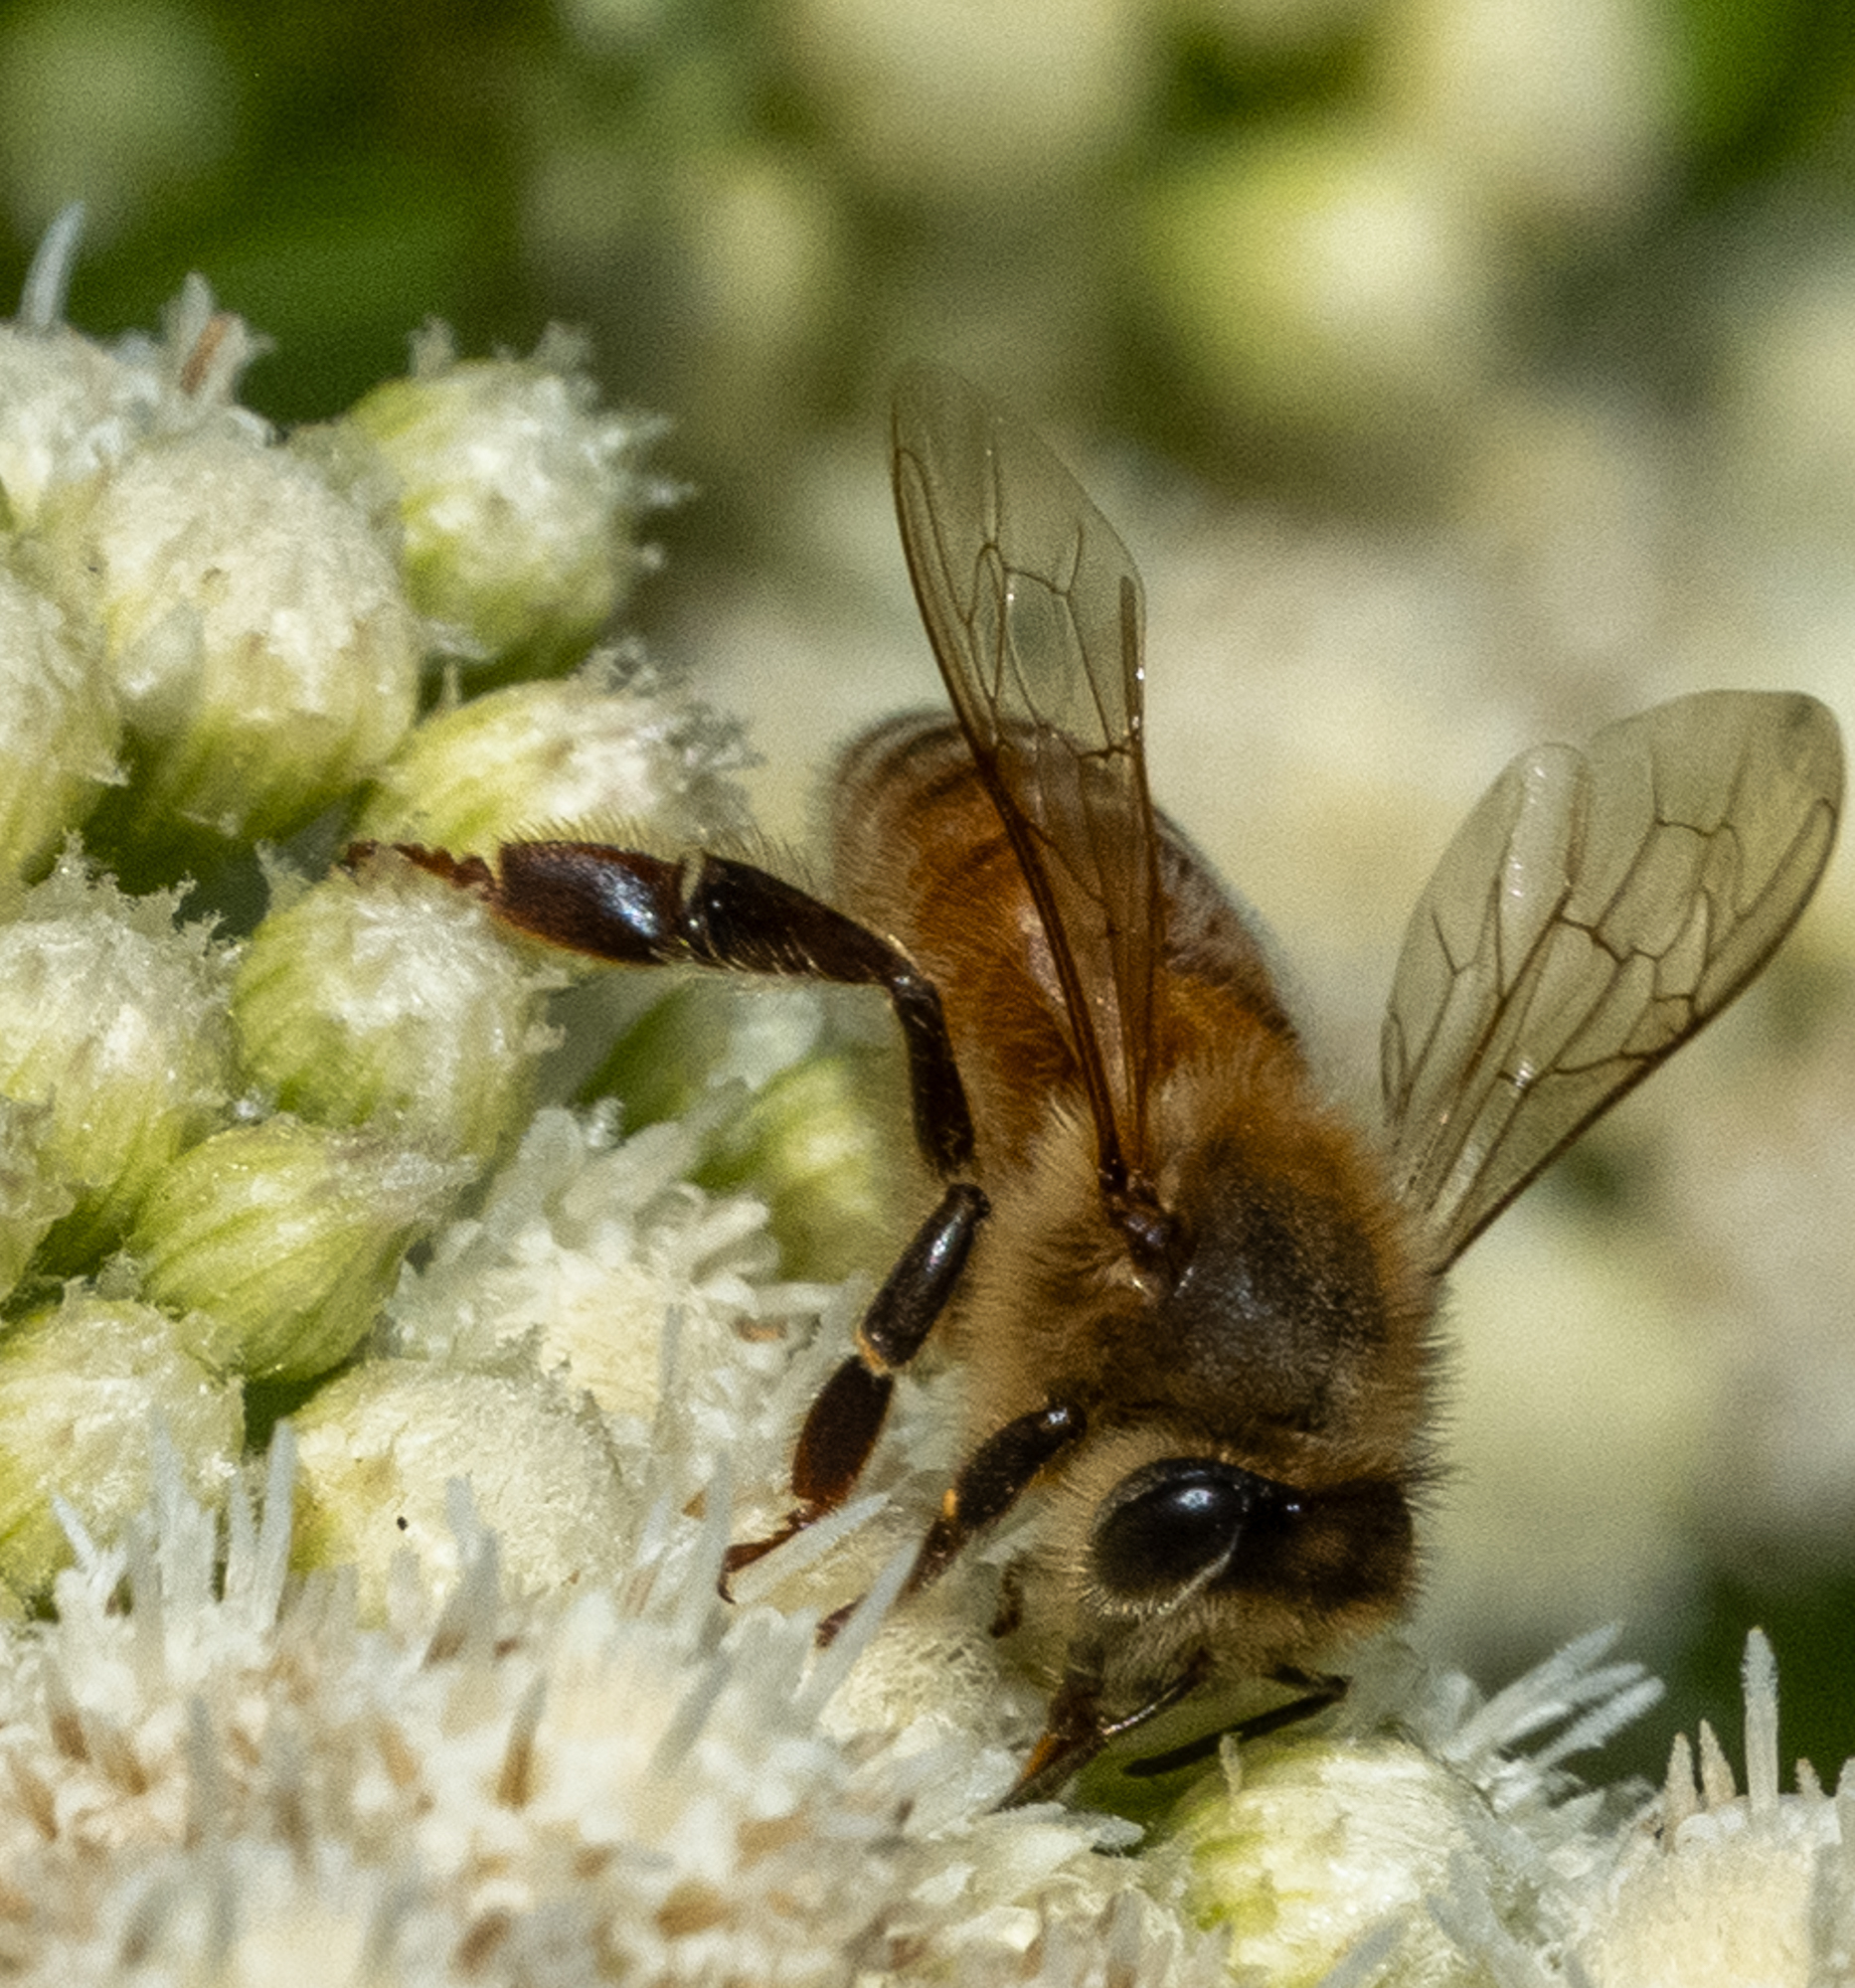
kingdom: Animalia
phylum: Arthropoda
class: Insecta
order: Hymenoptera
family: Apidae
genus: Apis
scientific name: Apis mellifera
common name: Honey bee
